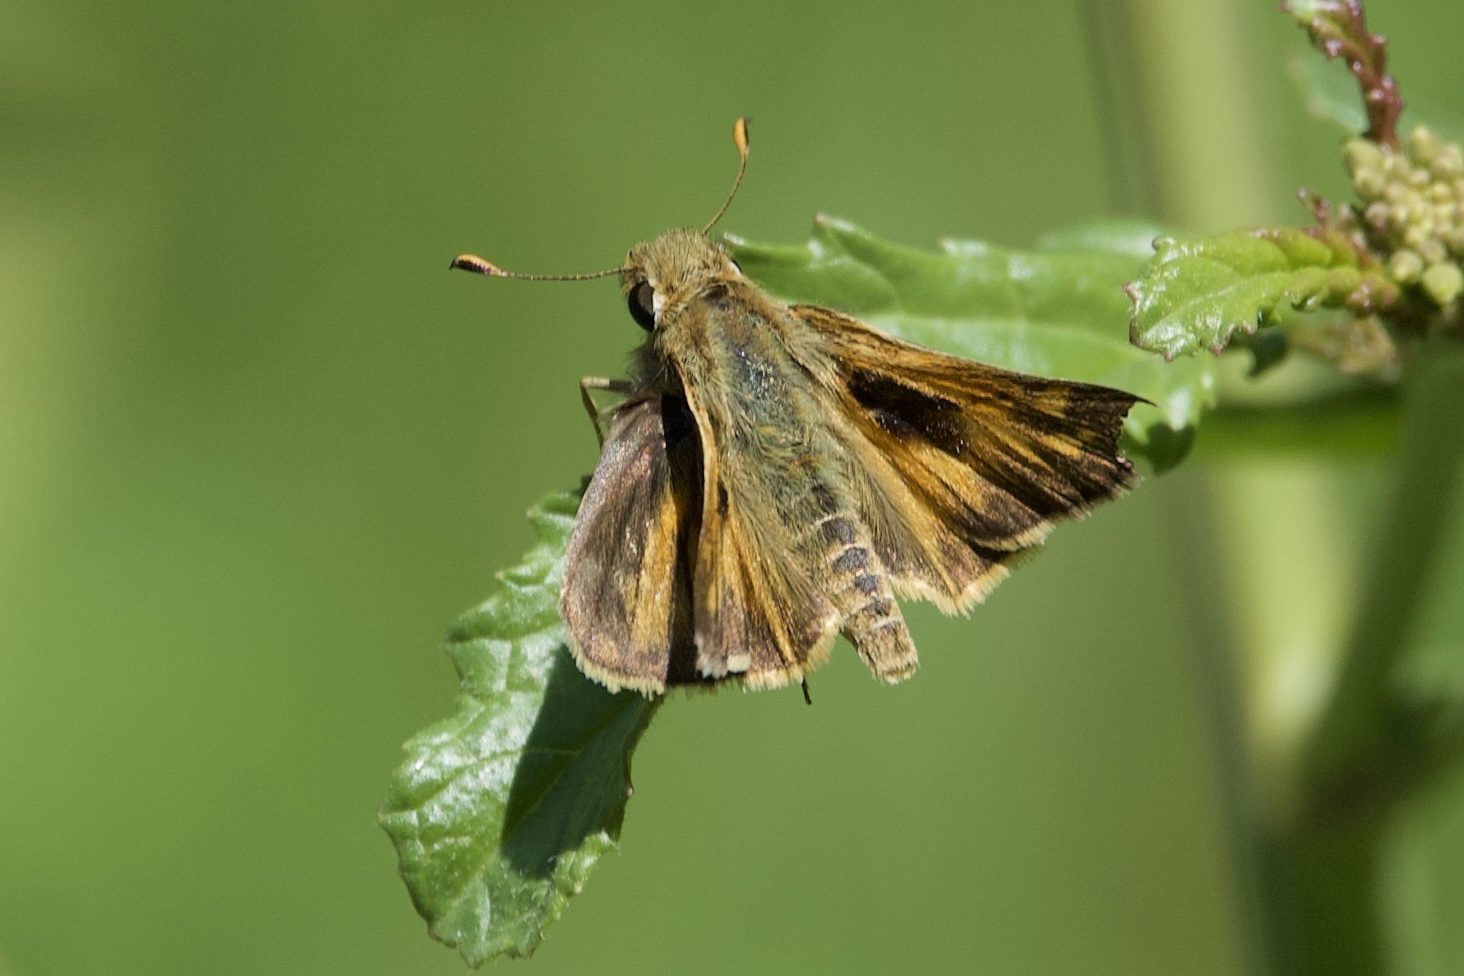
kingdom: Animalia
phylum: Arthropoda
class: Insecta
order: Lepidoptera
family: Hesperiidae
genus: Atalopedes
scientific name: Atalopedes
